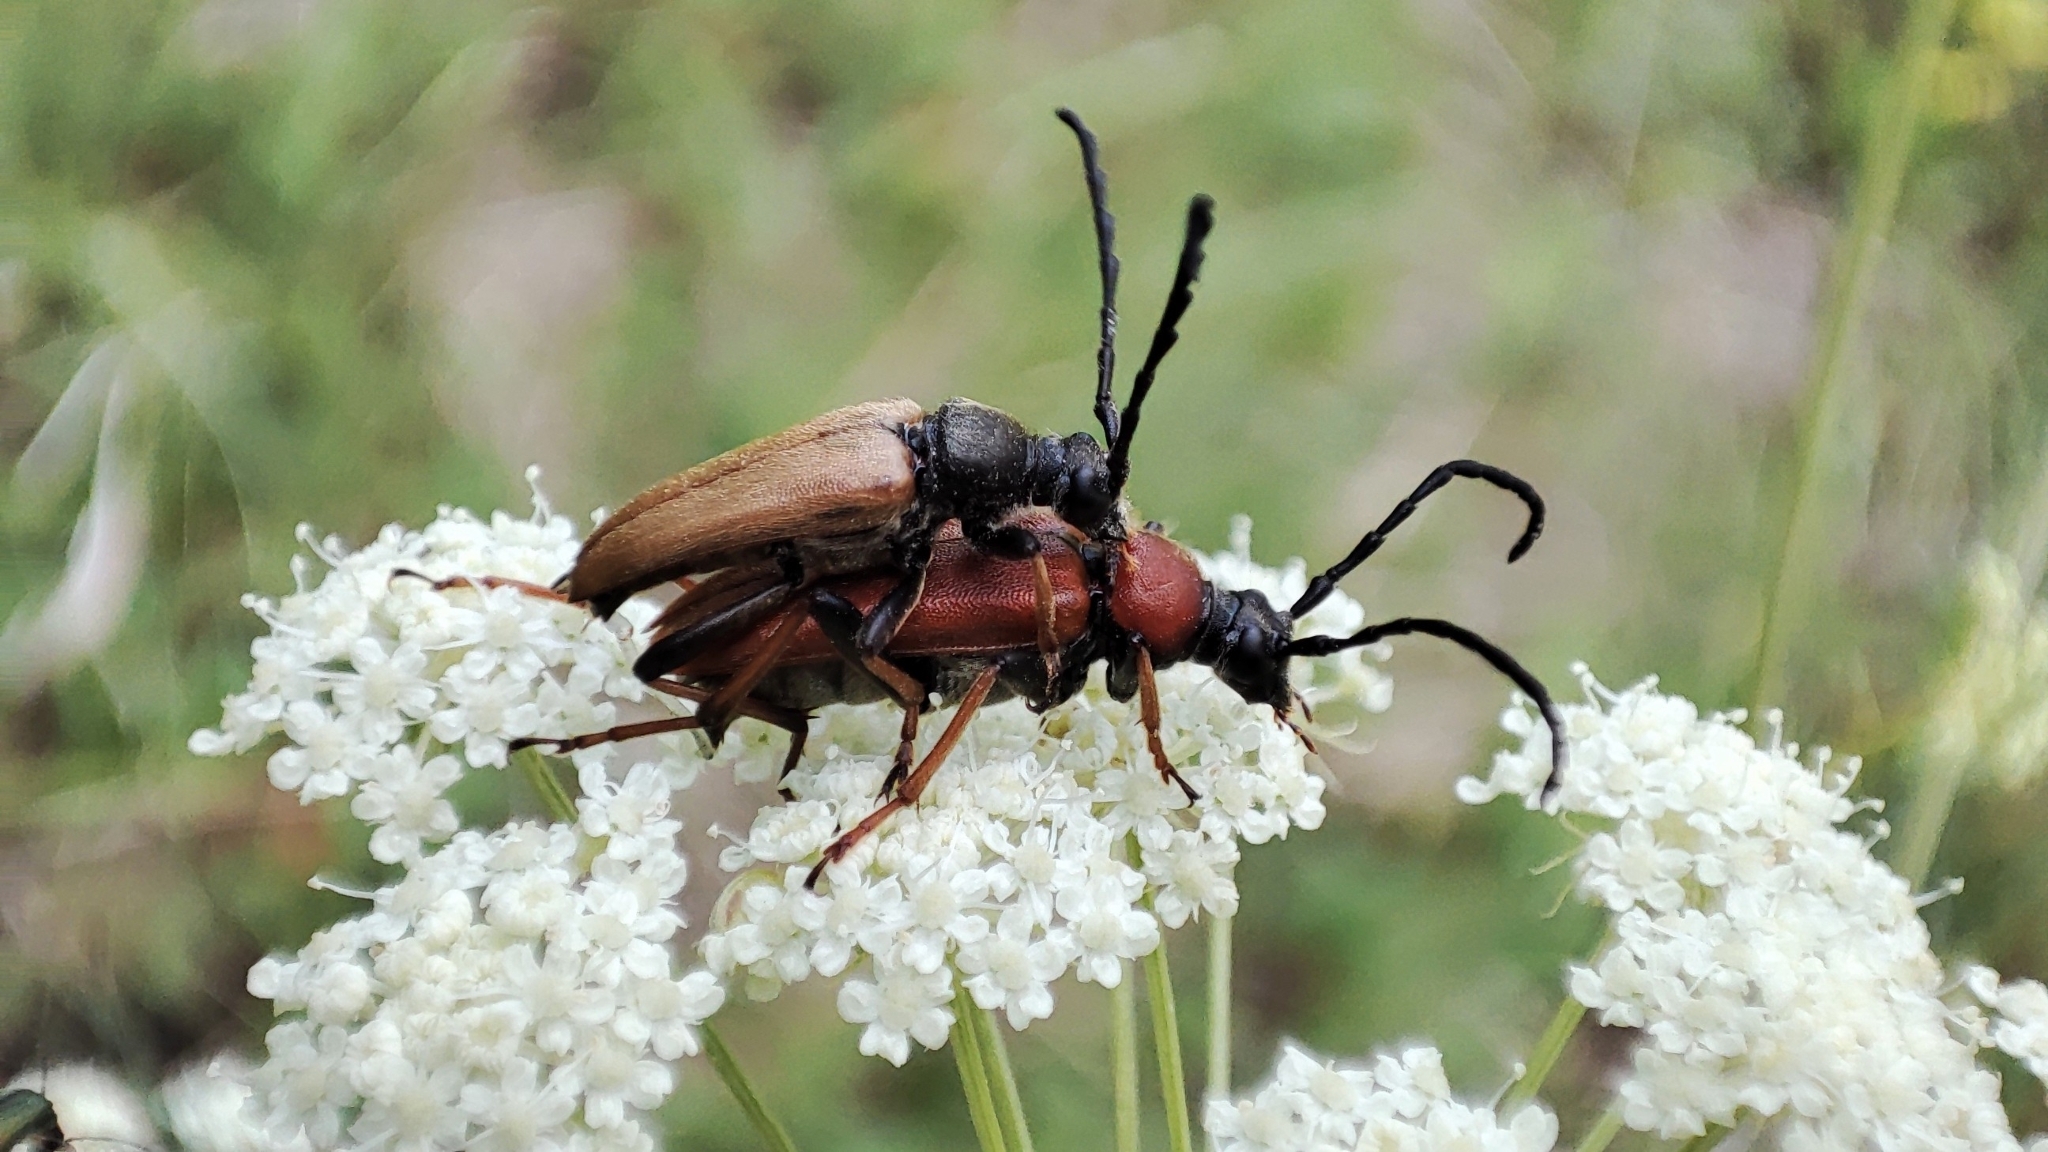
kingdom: Animalia
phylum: Arthropoda
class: Insecta
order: Coleoptera
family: Cerambycidae
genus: Stictoleptura
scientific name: Stictoleptura rubra
